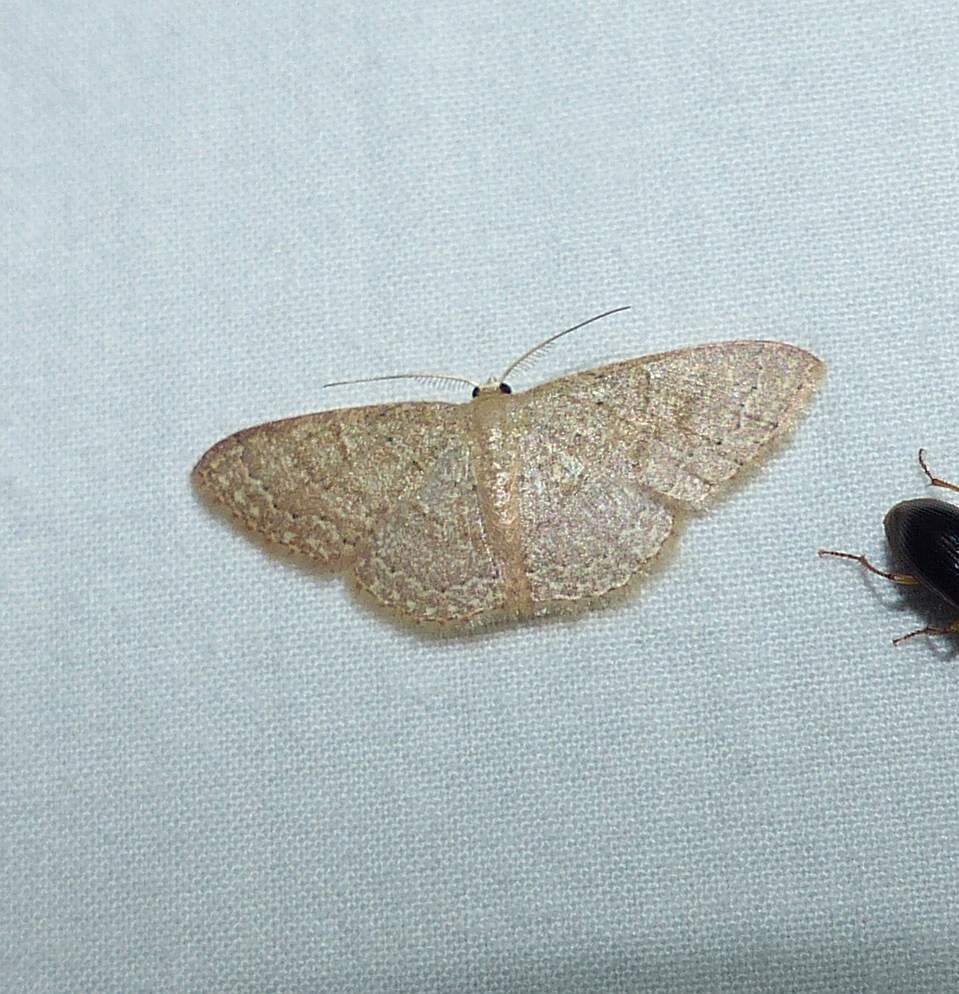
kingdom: Animalia
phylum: Arthropoda
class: Insecta
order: Lepidoptera
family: Geometridae
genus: Pleuroprucha
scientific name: Pleuroprucha insulsaria
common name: Common tan wave
